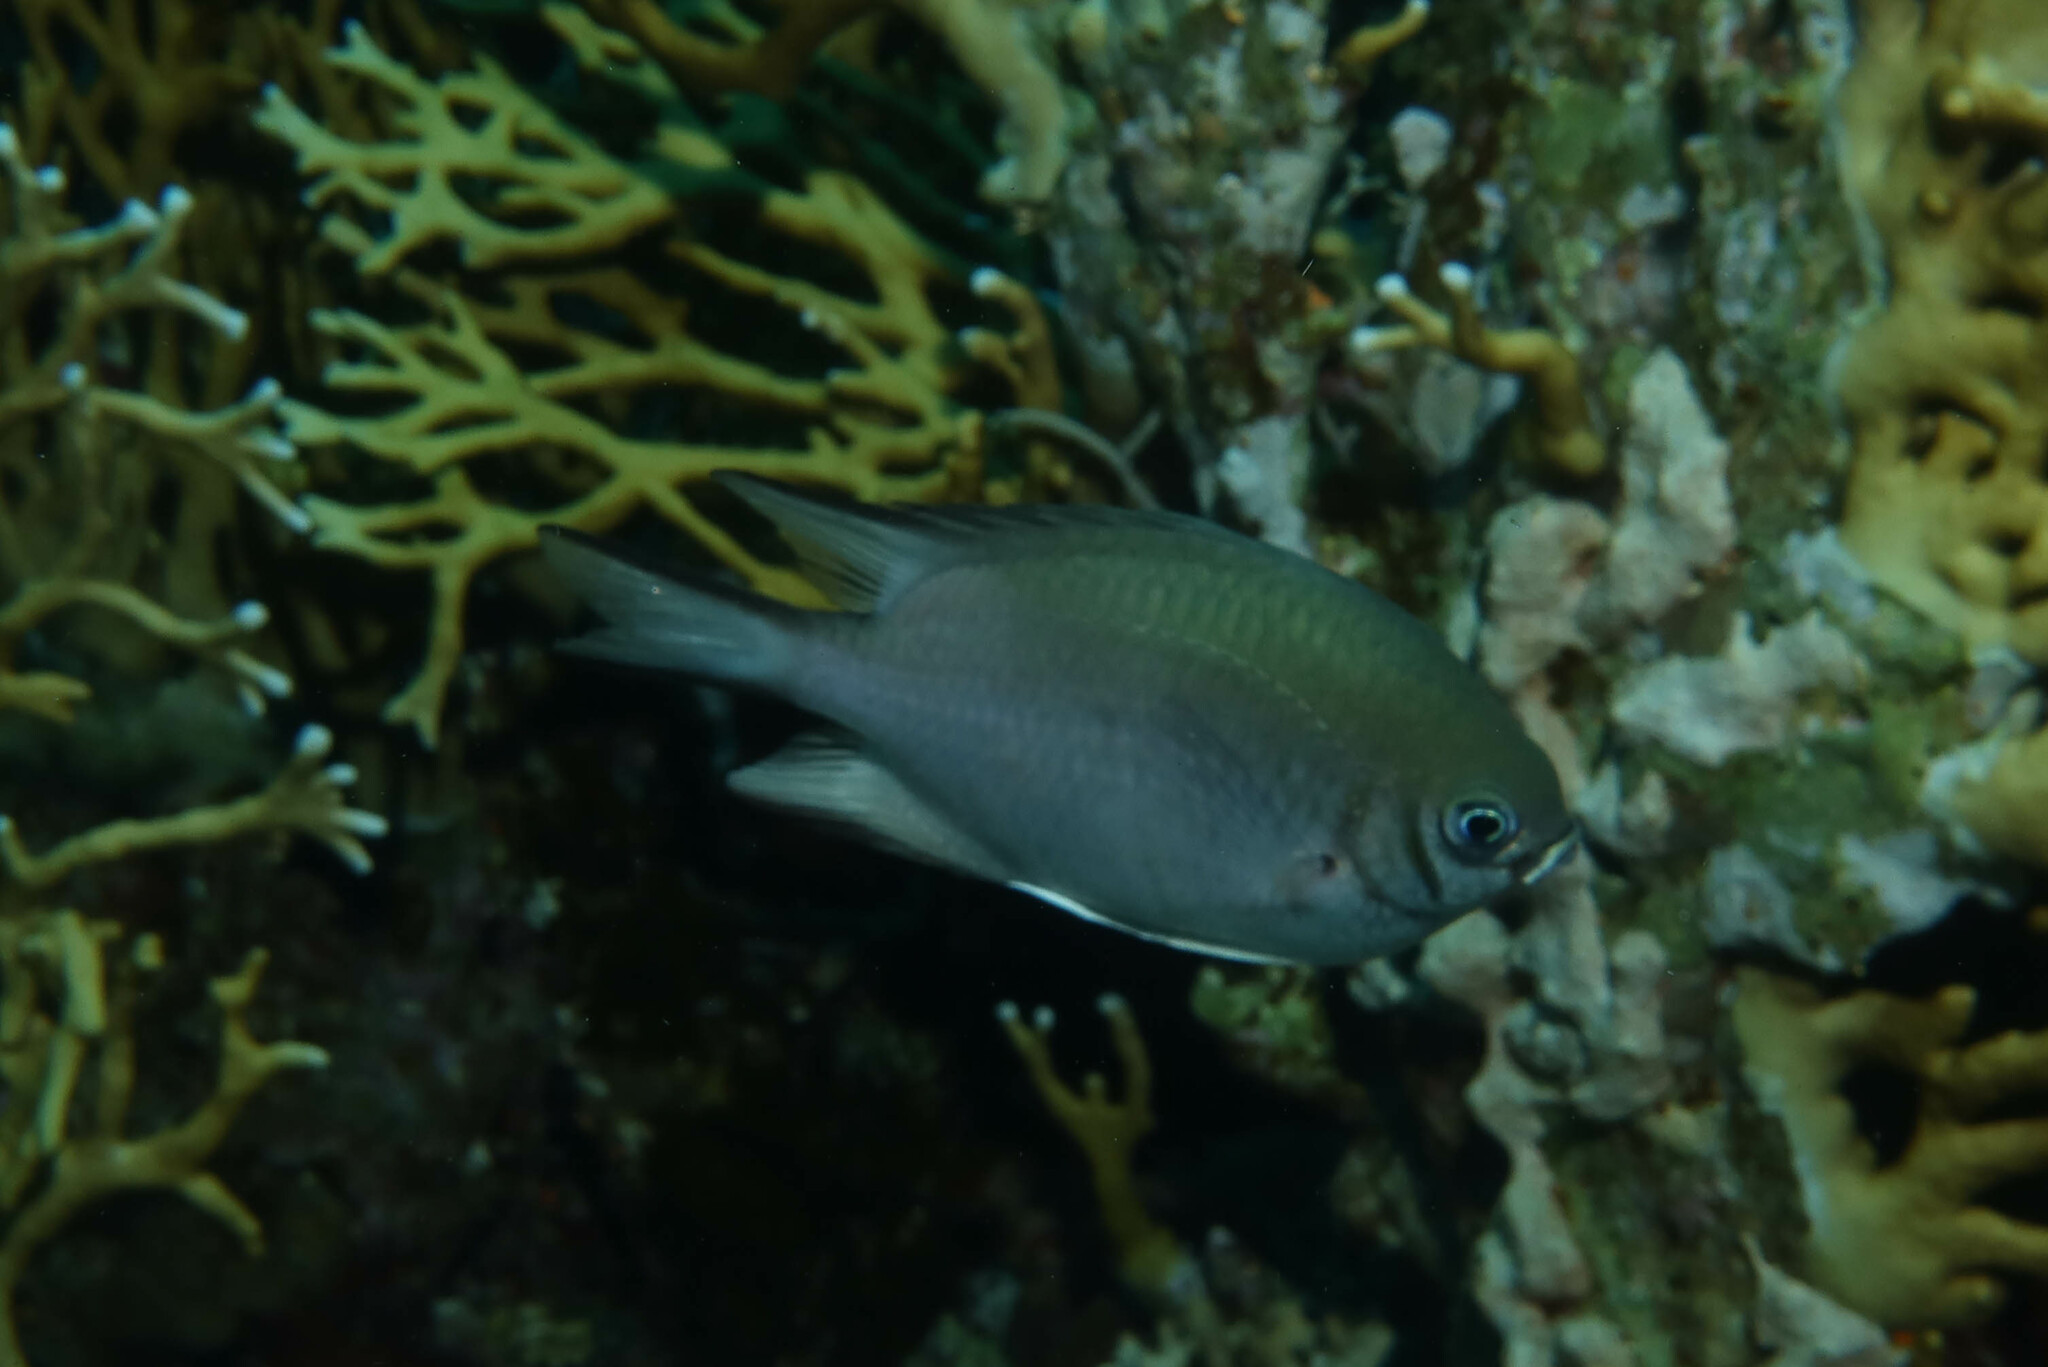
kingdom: Animalia
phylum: Chordata
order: Perciformes
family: Pomacentridae
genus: Amblyglyphidodon
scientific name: Amblyglyphidodon indicus
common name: Maldives damselfish
